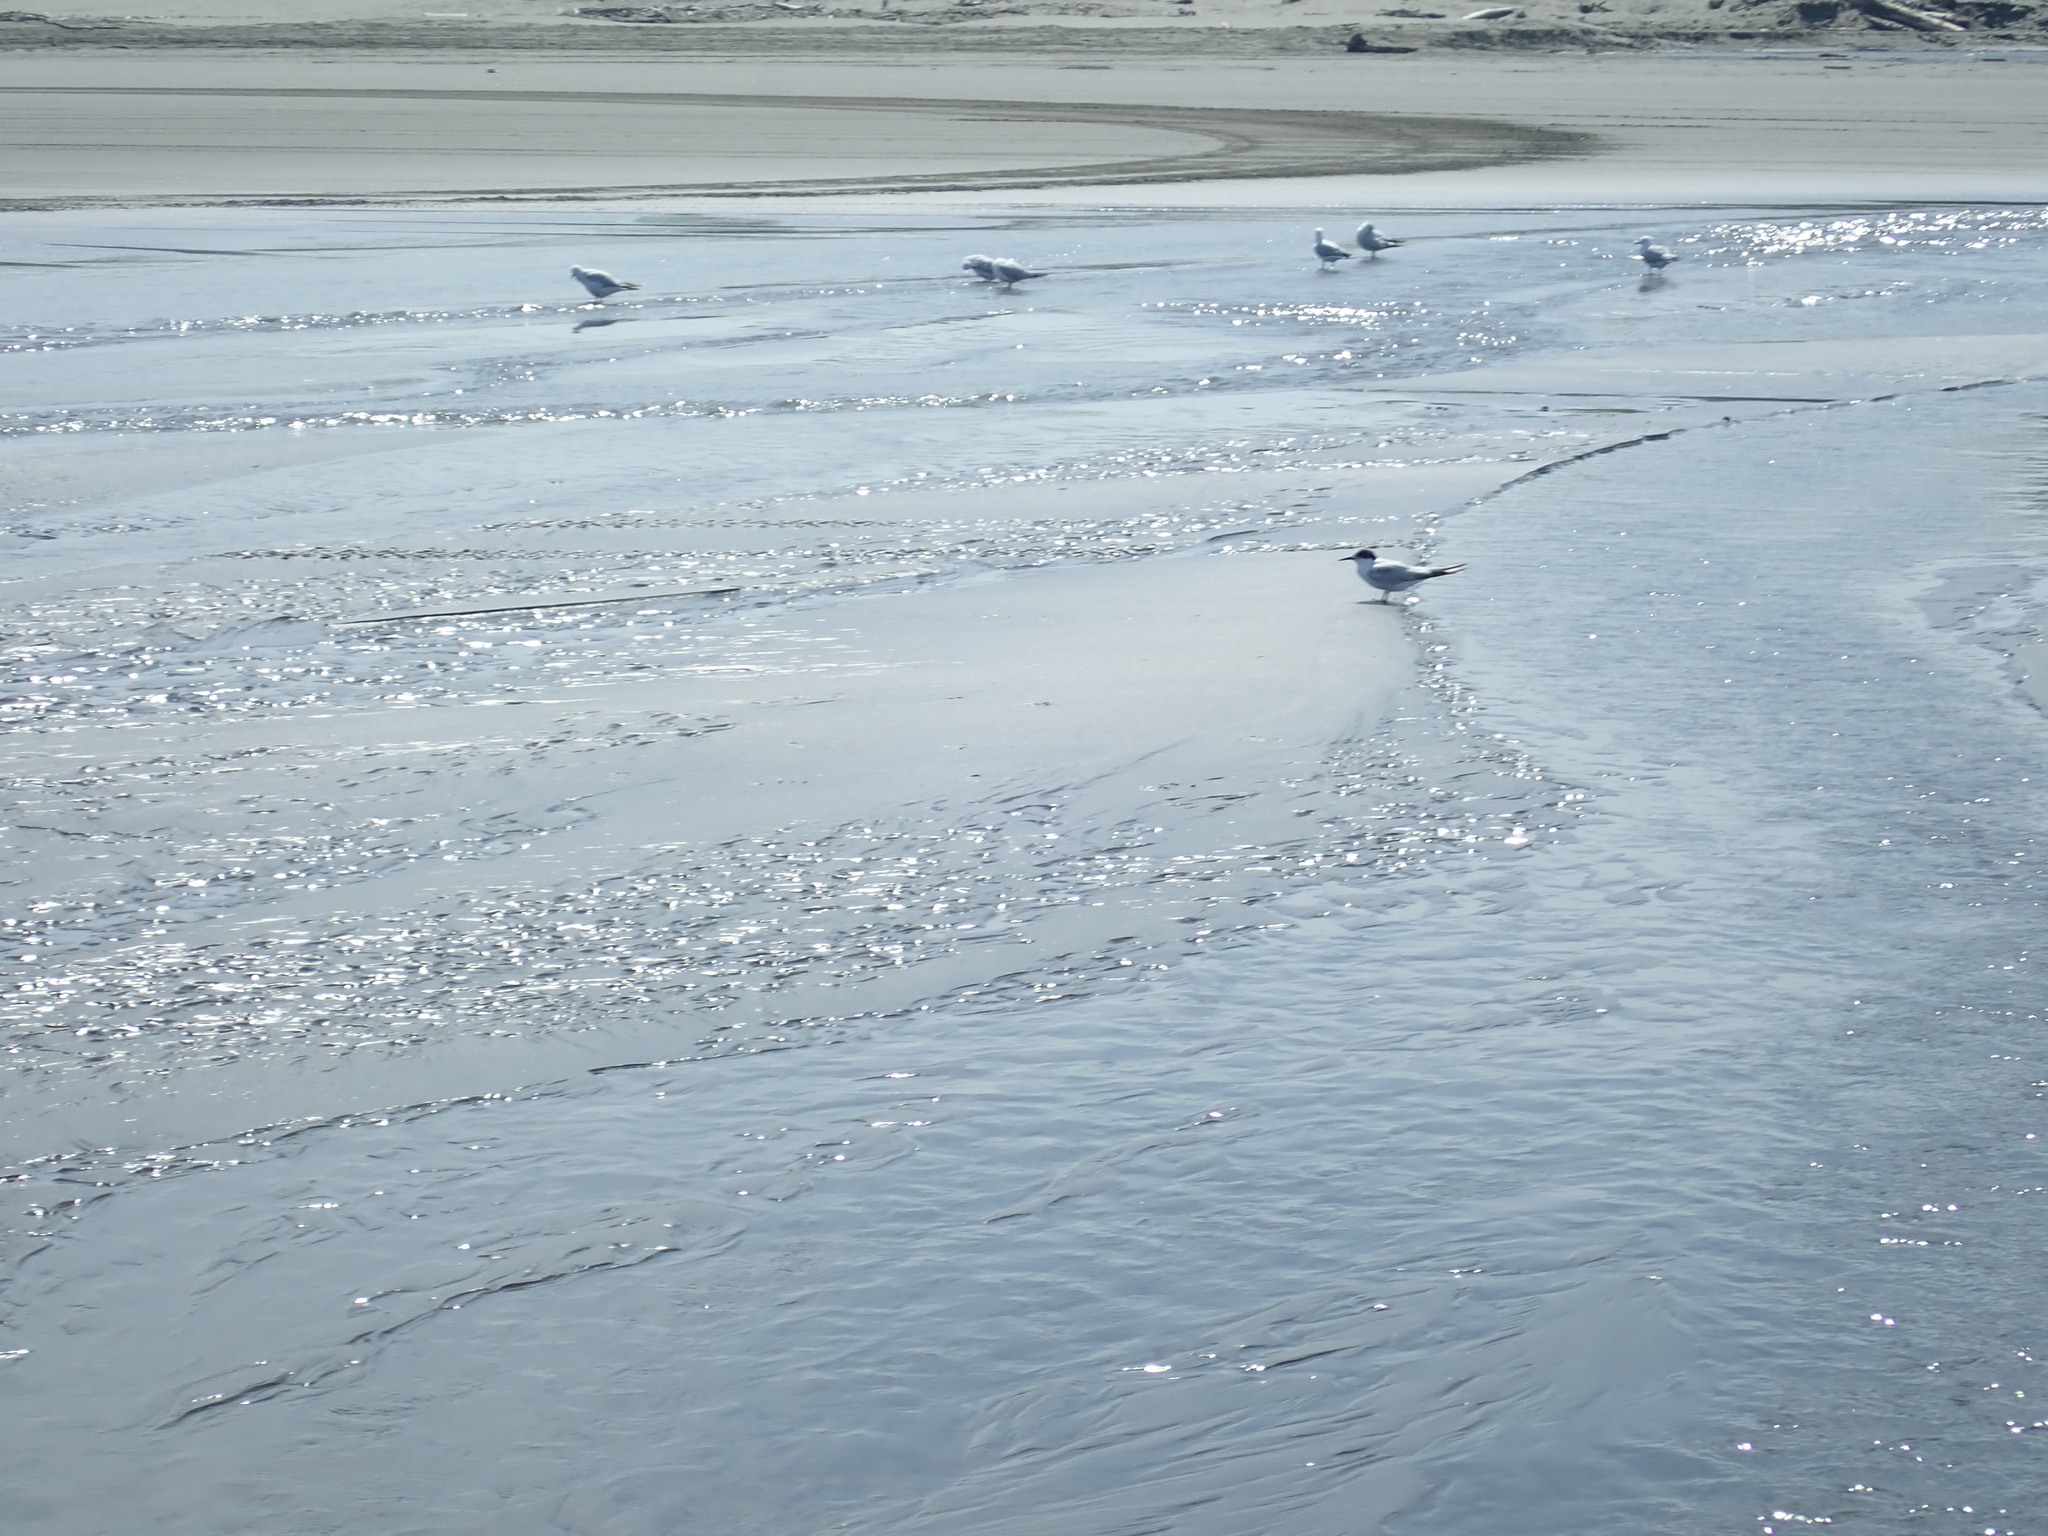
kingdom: Animalia
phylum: Chordata
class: Aves
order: Charadriiformes
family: Laridae
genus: Sterna
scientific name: Sterna striata
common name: White-fronted tern
